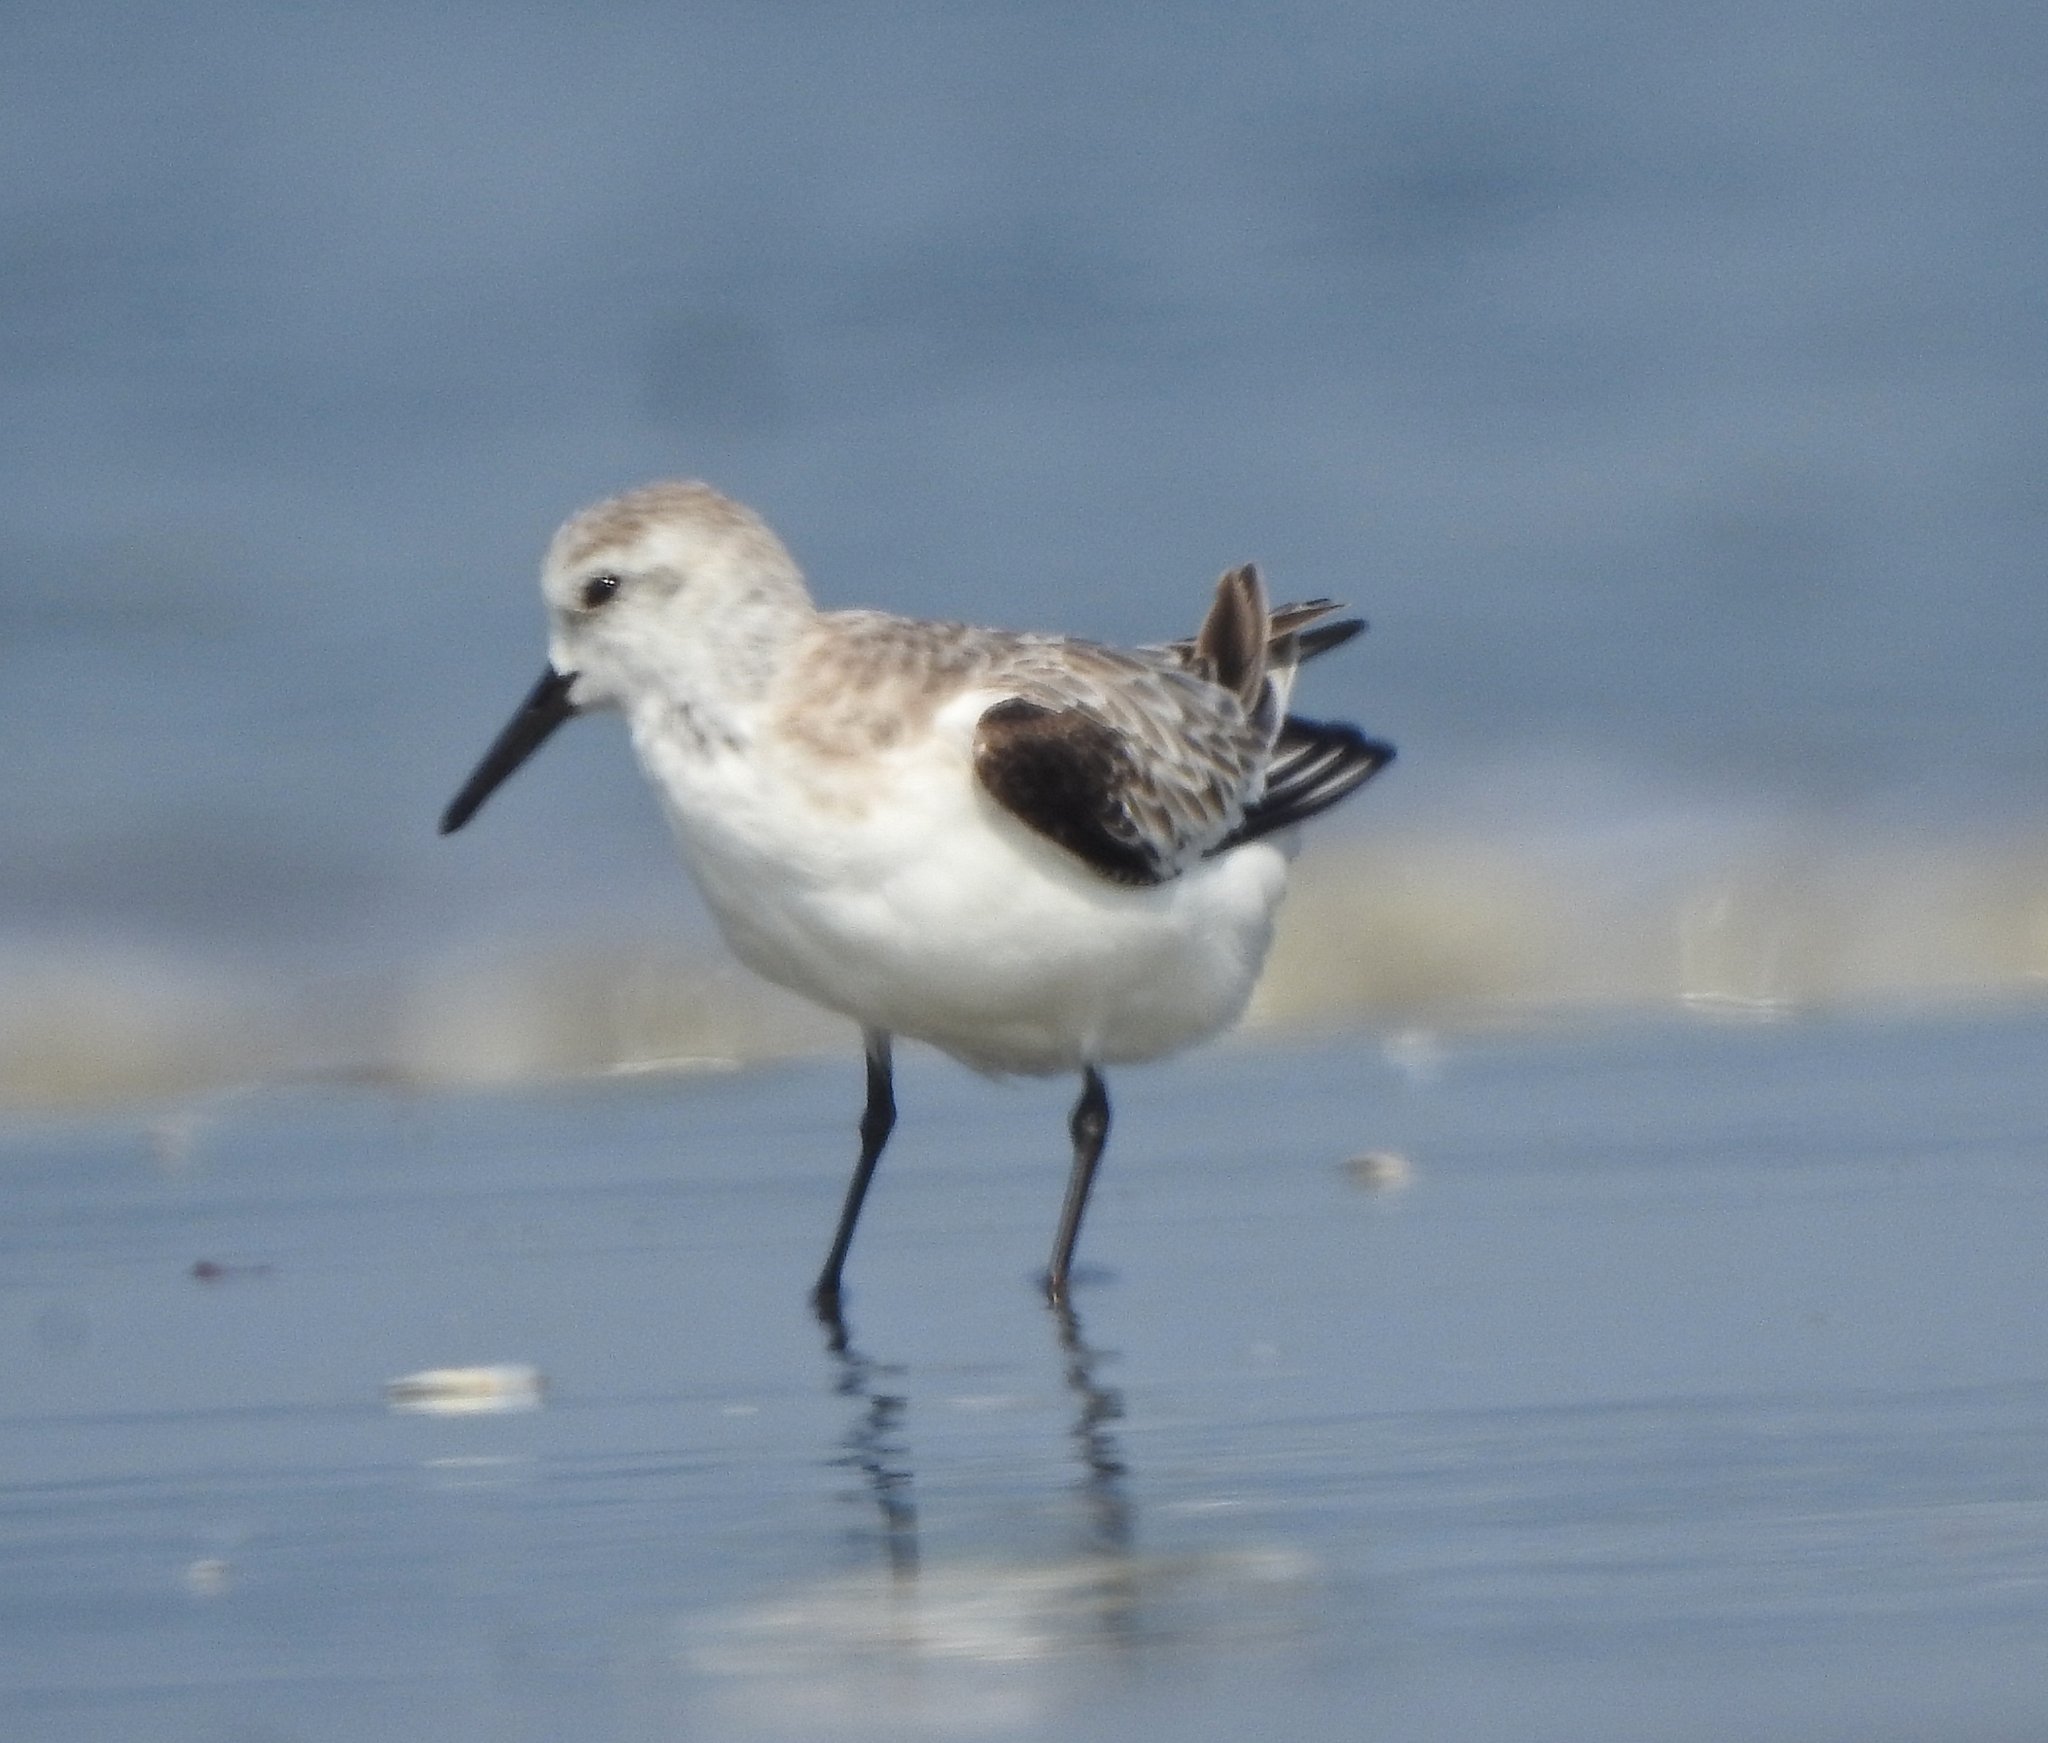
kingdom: Animalia
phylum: Chordata
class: Aves
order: Charadriiformes
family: Scolopacidae
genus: Calidris
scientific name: Calidris alba
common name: Sanderling
